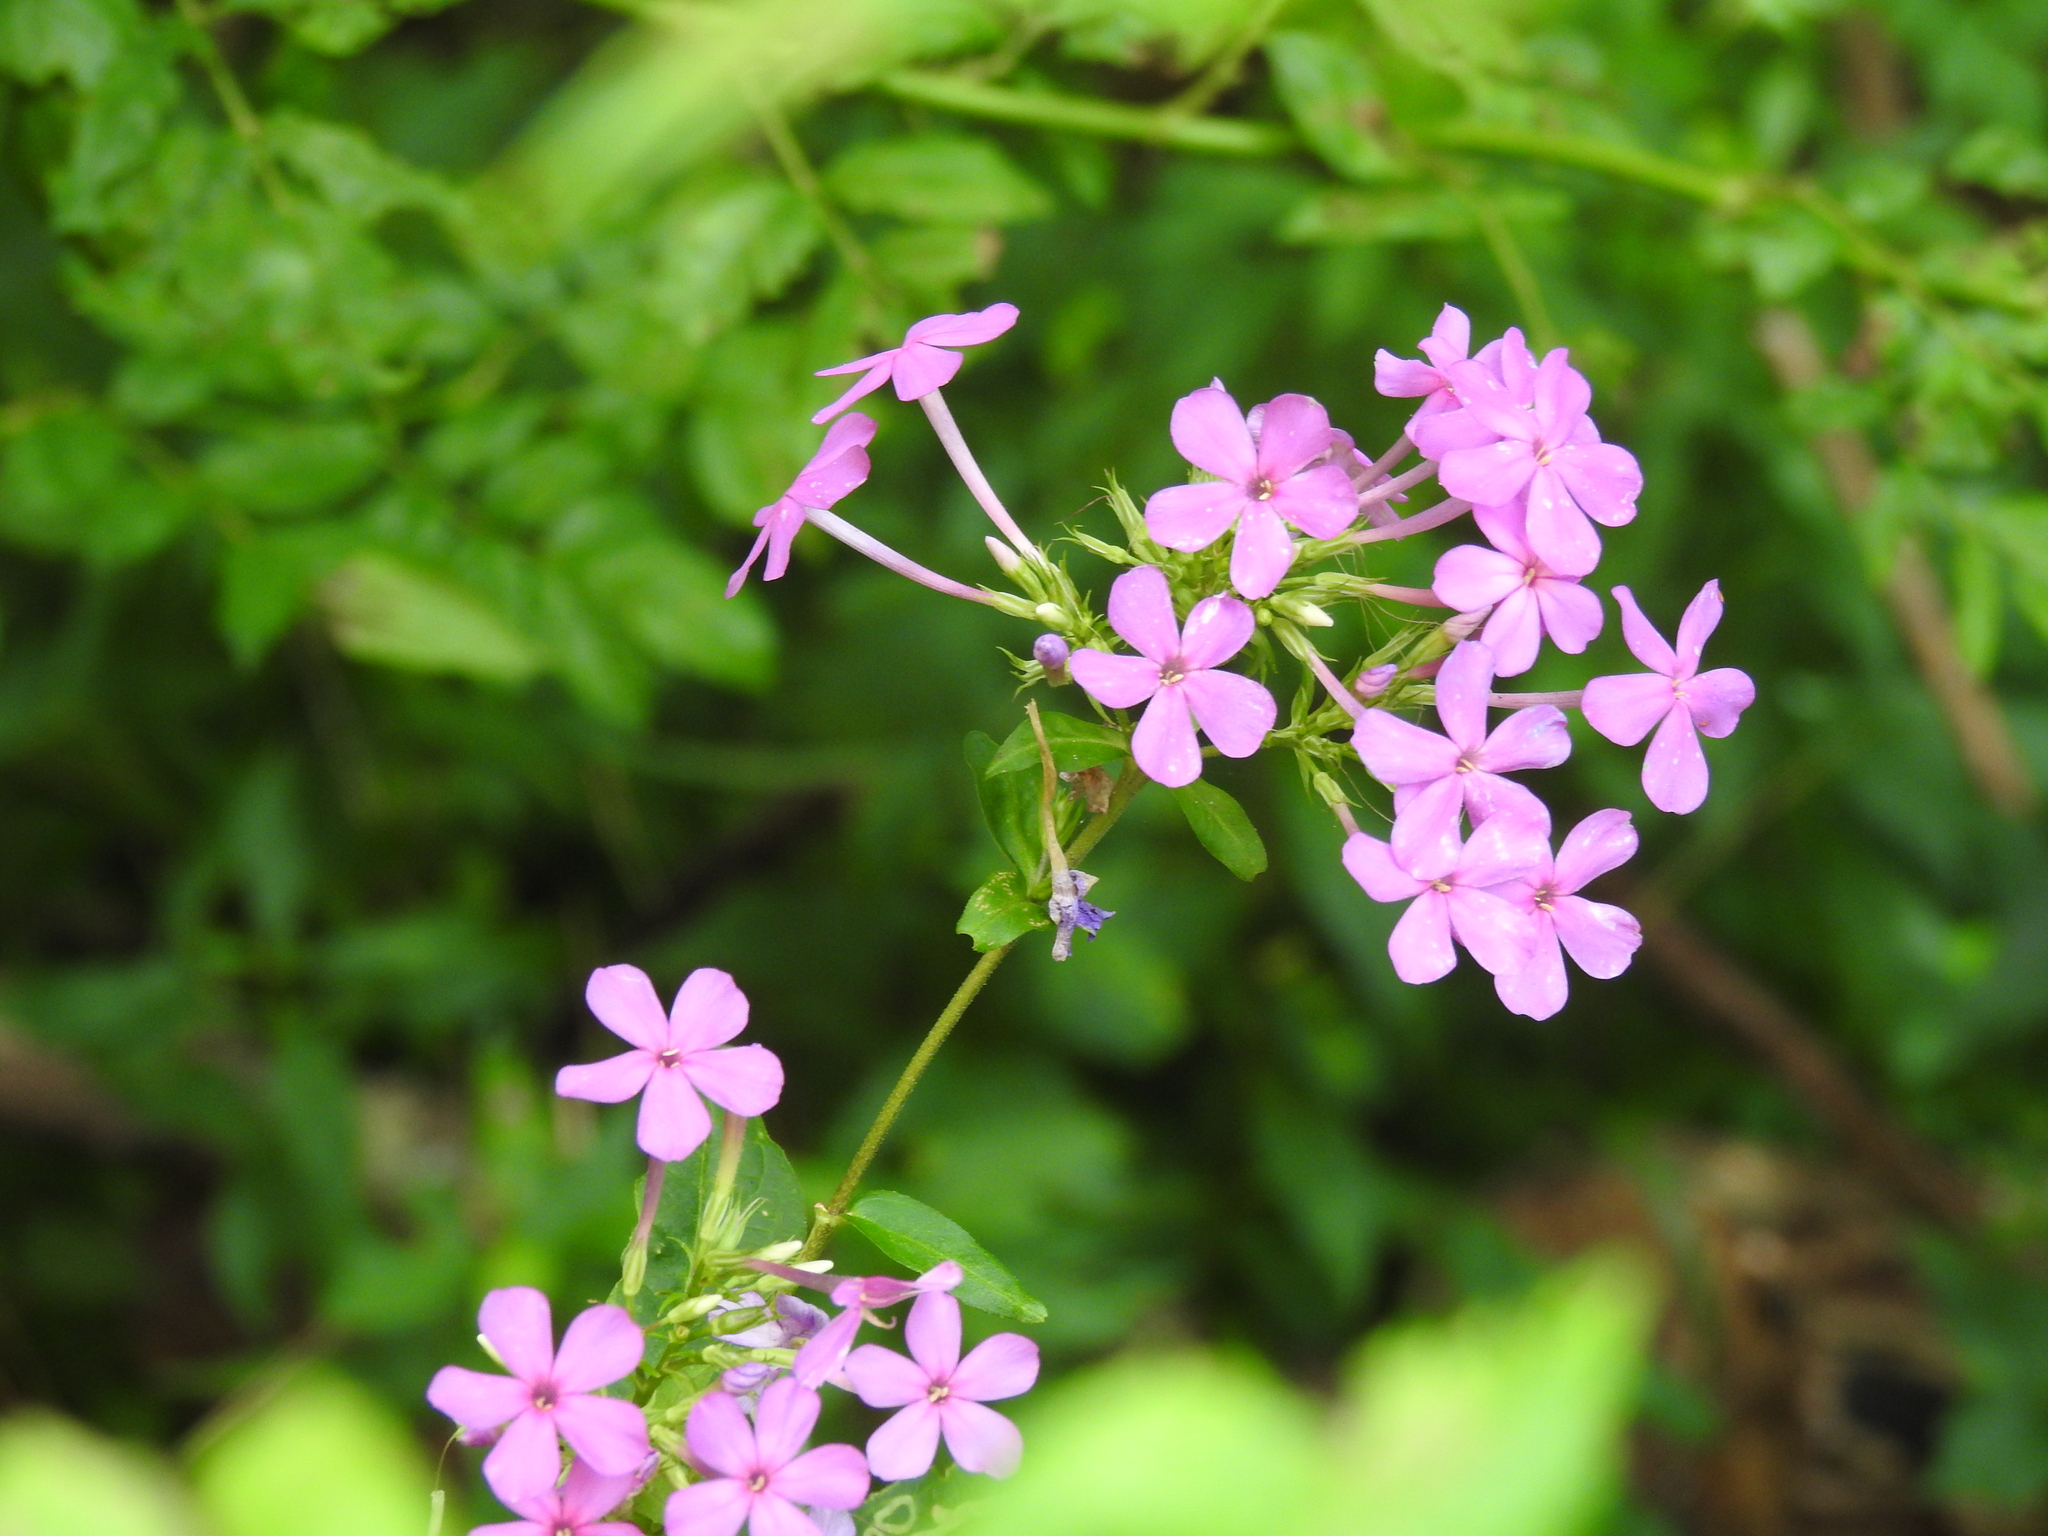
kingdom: Plantae
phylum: Tracheophyta
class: Magnoliopsida
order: Ericales
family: Polemoniaceae
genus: Phlox
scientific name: Phlox paniculata
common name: Fall phlox
